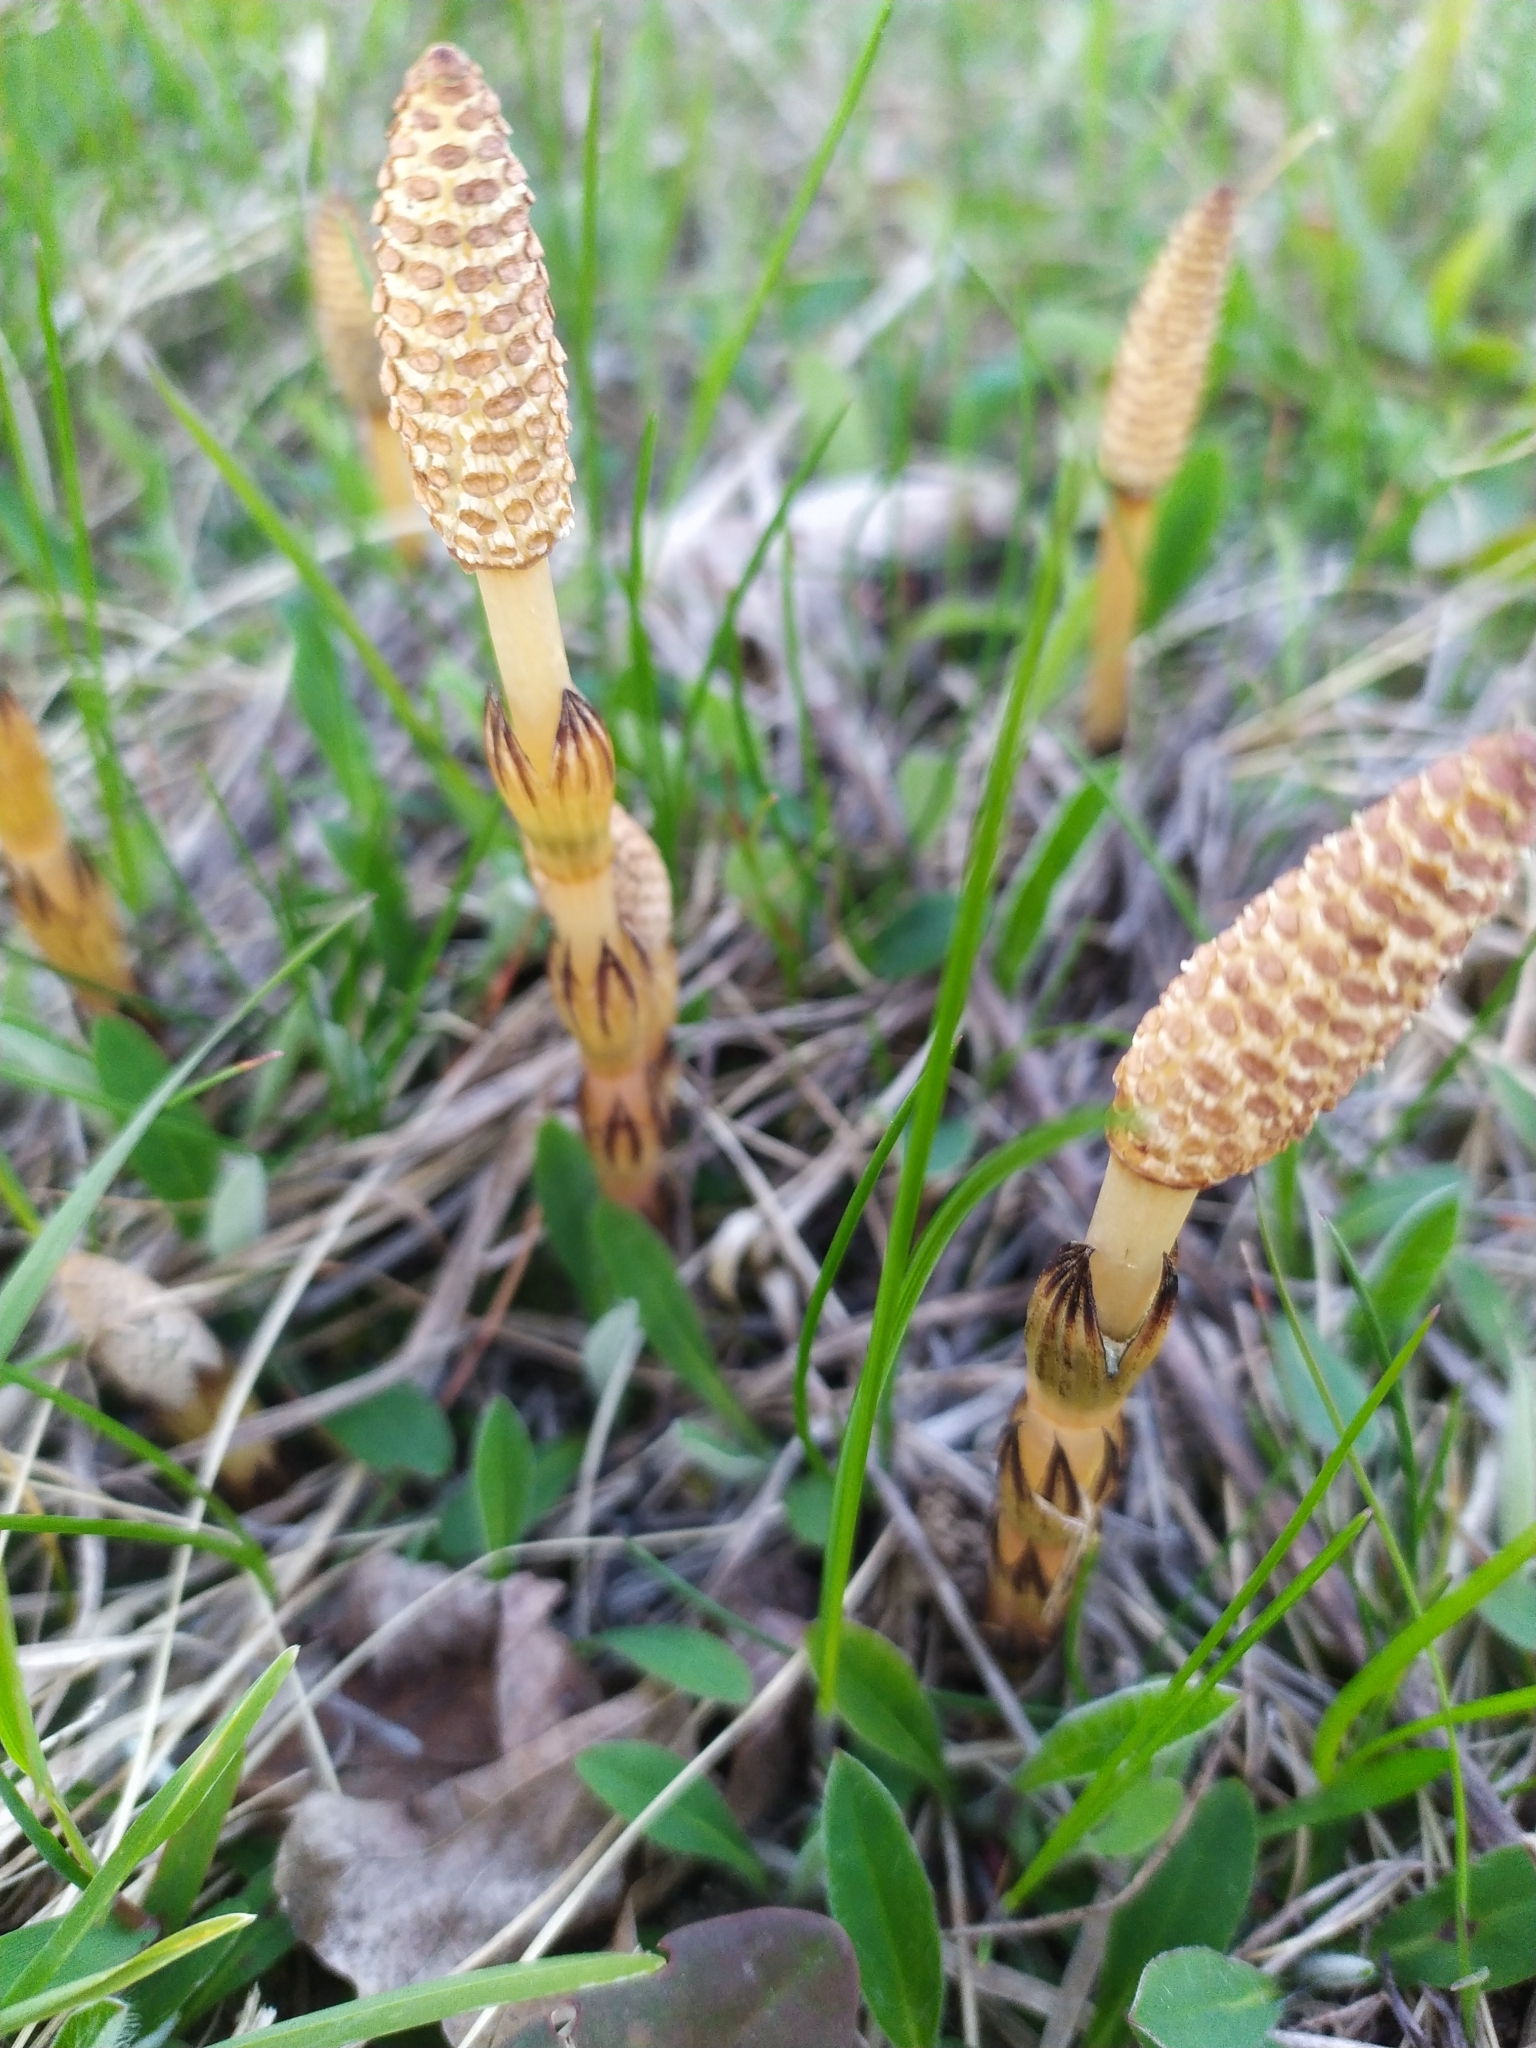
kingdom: Plantae
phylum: Tracheophyta
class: Polypodiopsida
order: Equisetales
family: Equisetaceae
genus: Equisetum
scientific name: Equisetum arvense
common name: Field horsetail
